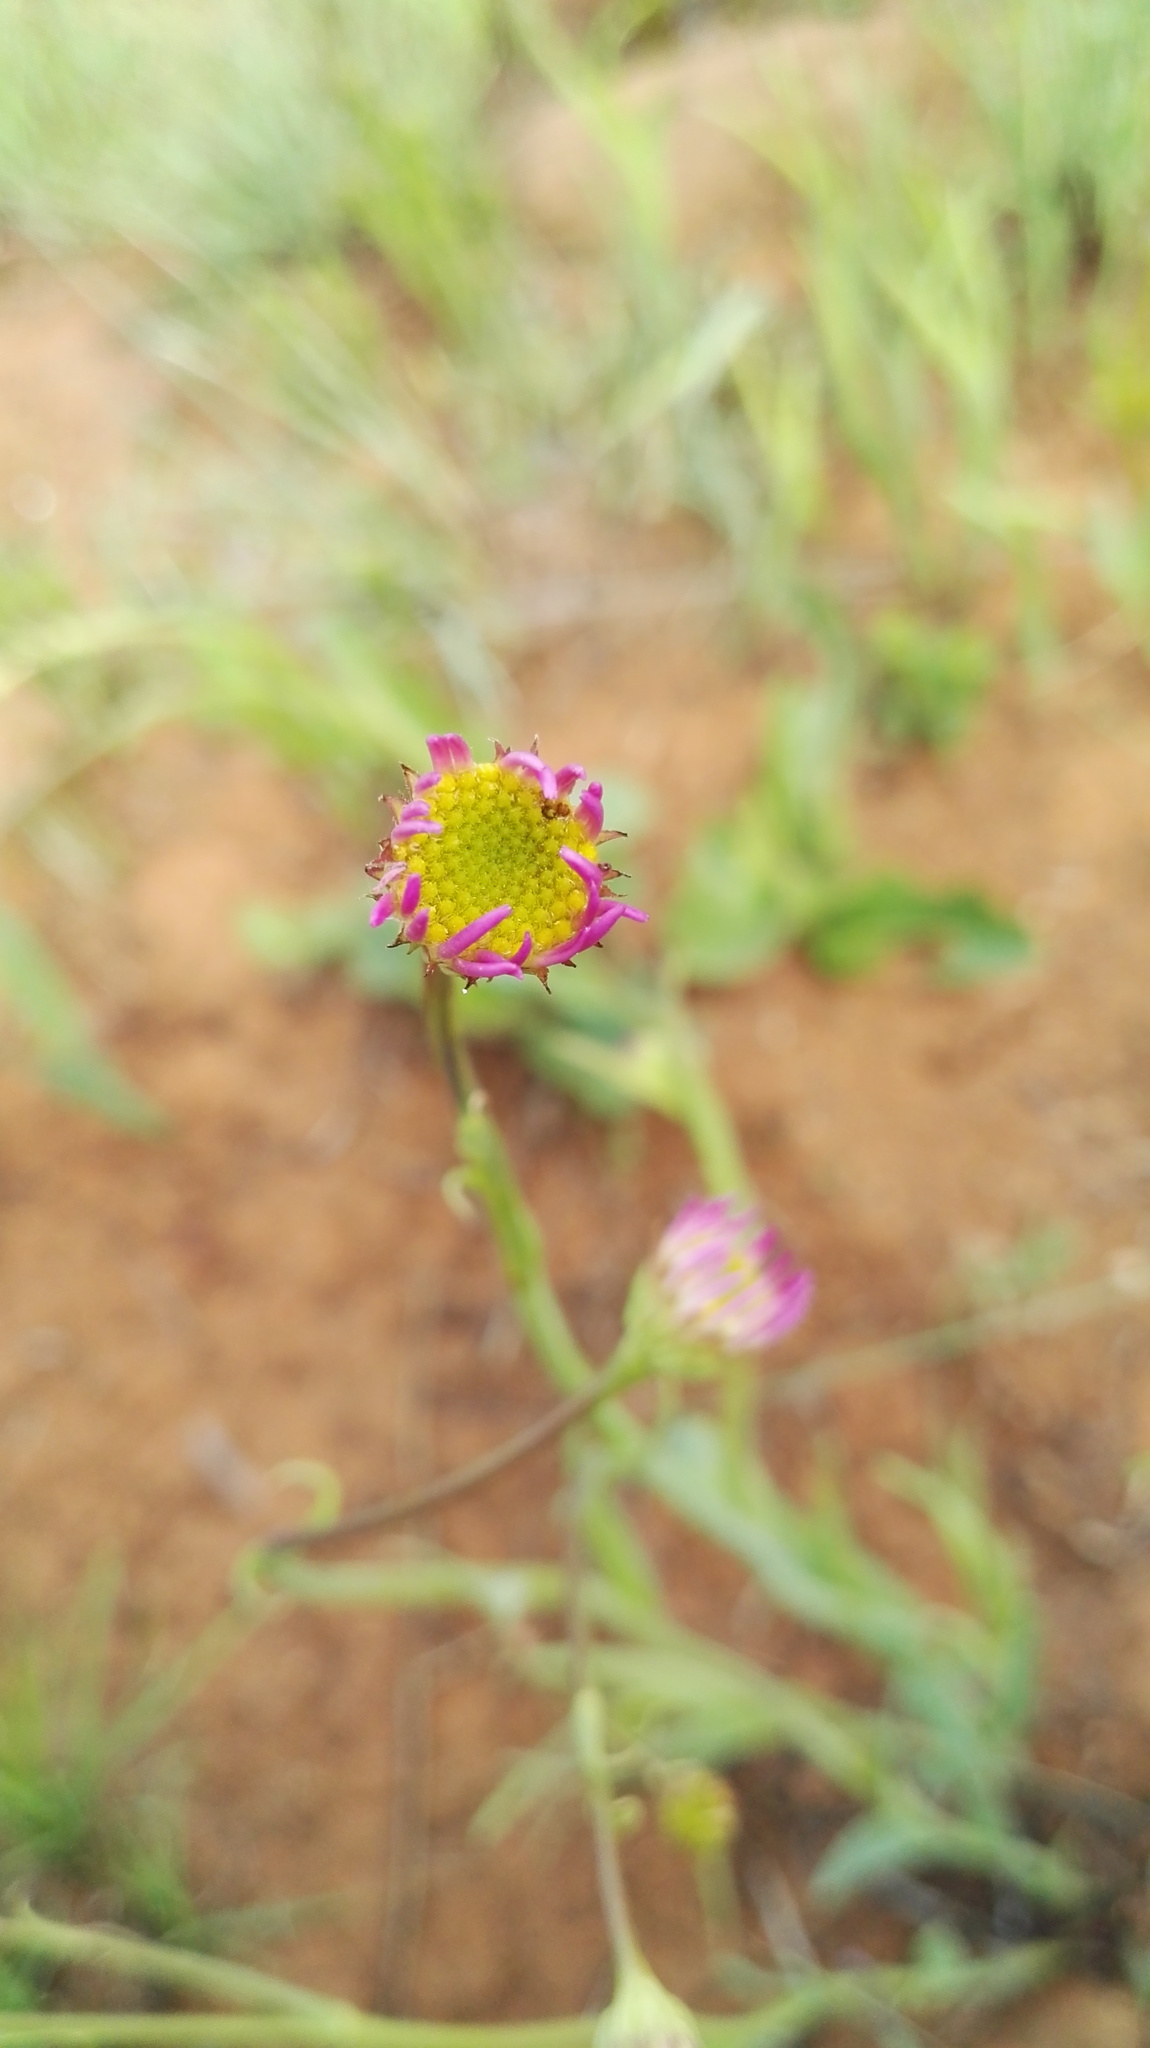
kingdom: Plantae
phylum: Tracheophyta
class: Magnoliopsida
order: Asterales
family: Asteraceae
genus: Afroaster
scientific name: Afroaster hispidus
